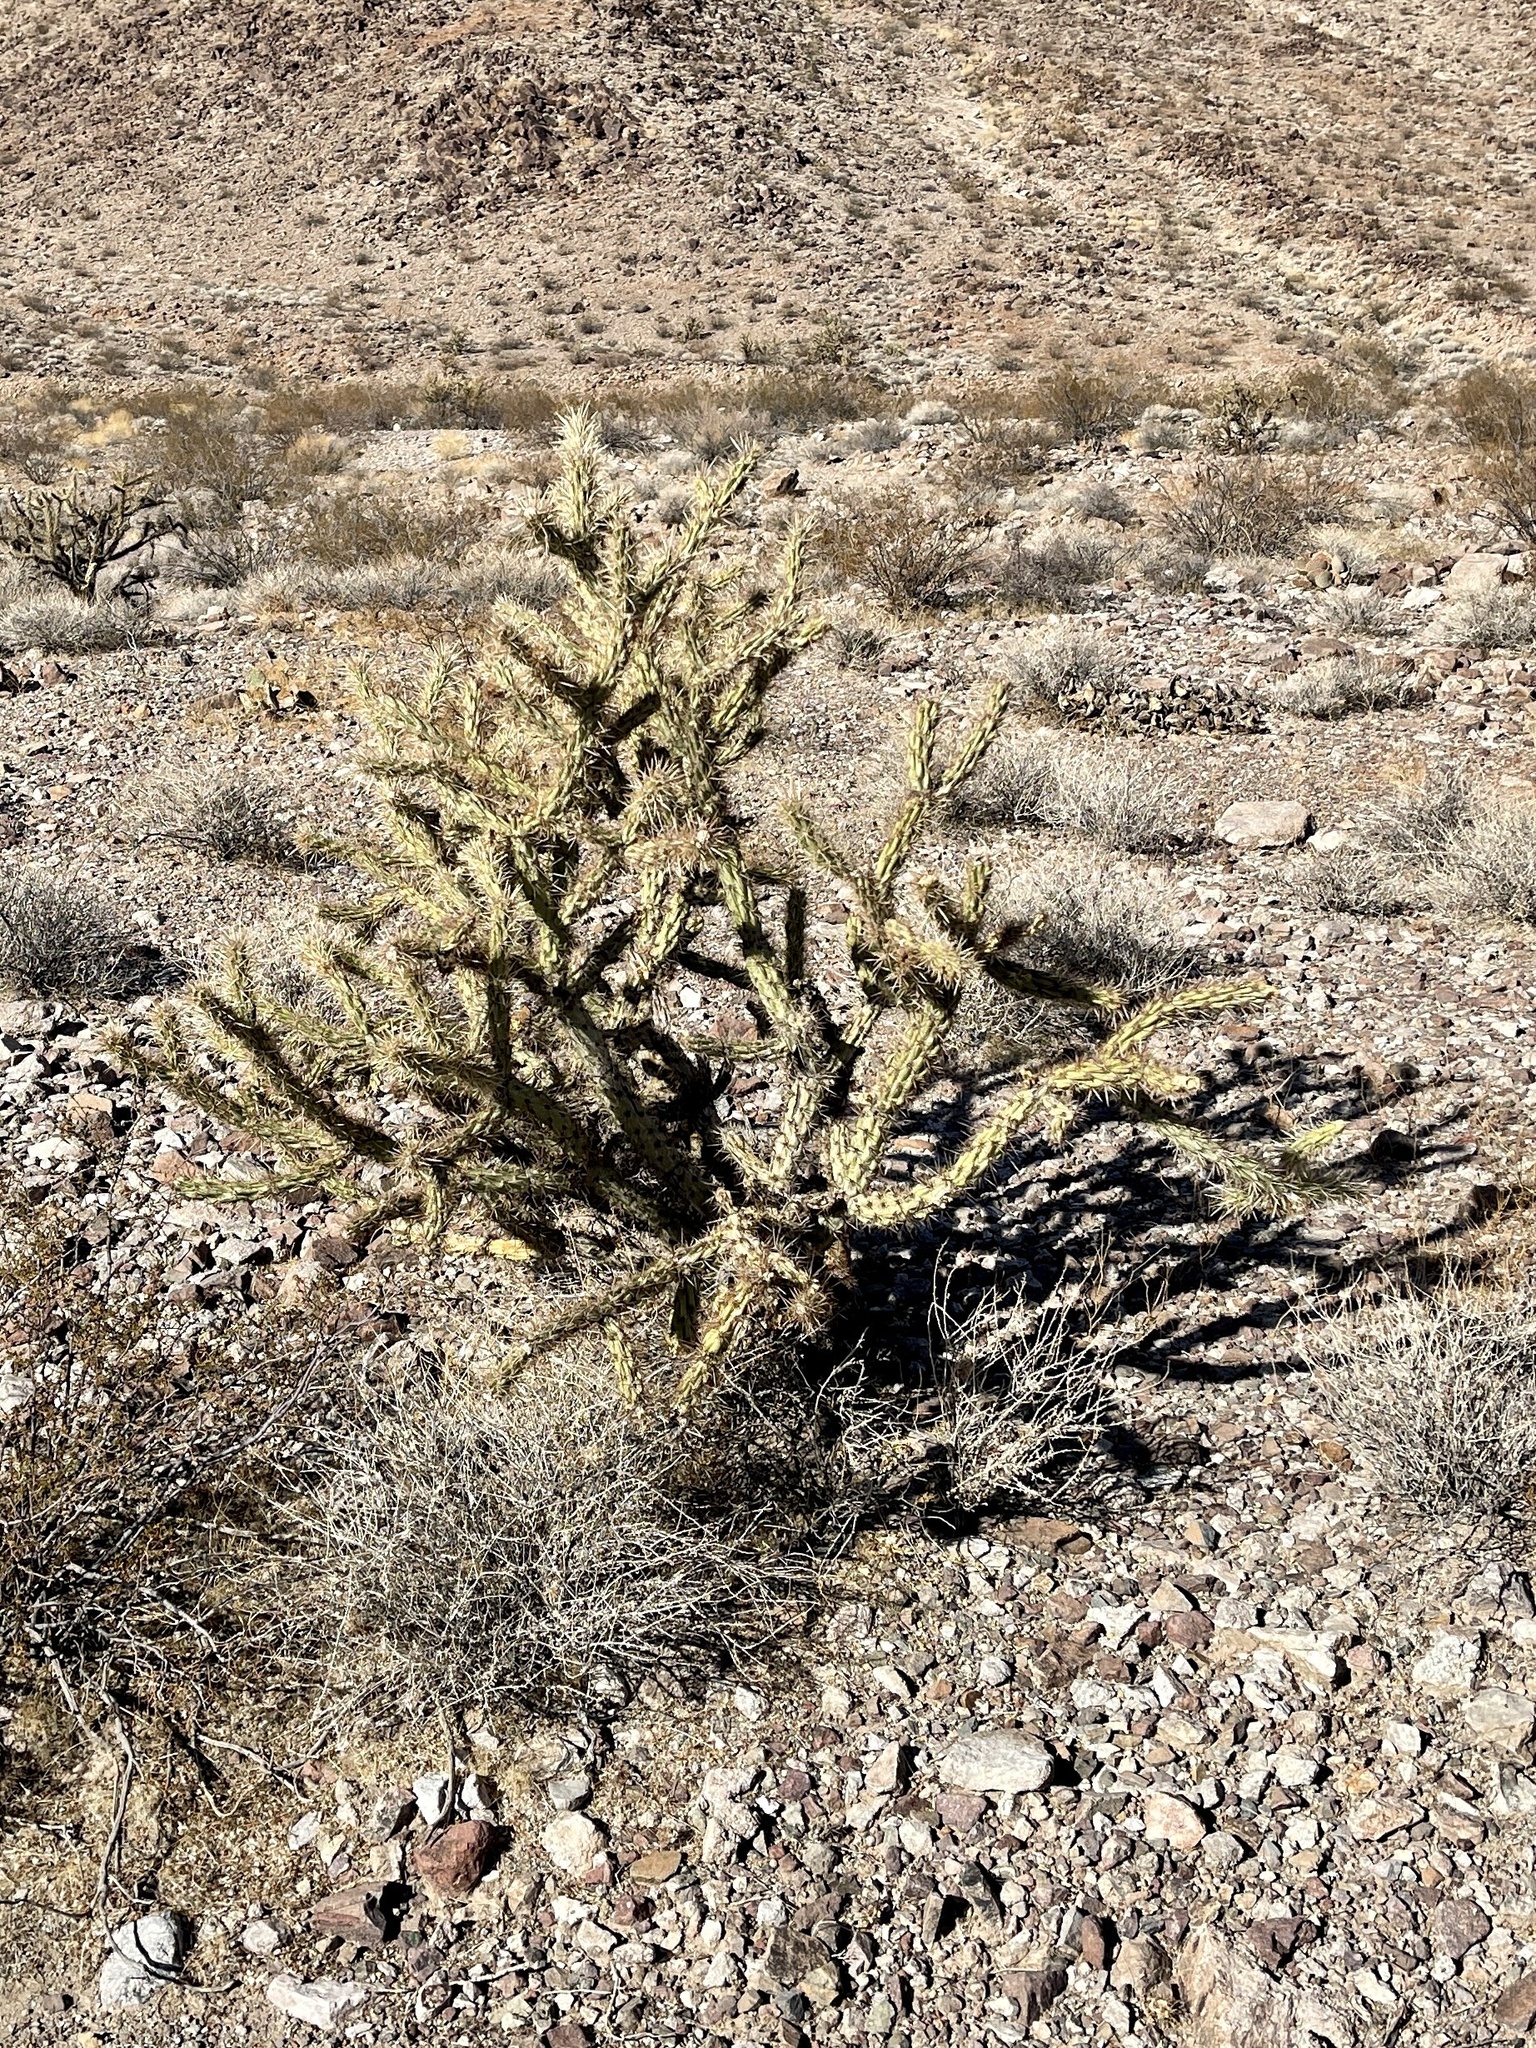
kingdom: Plantae
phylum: Tracheophyta
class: Magnoliopsida
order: Caryophyllales
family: Cactaceae
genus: Cylindropuntia
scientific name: Cylindropuntia acanthocarpa
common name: Buckhorn cholla
